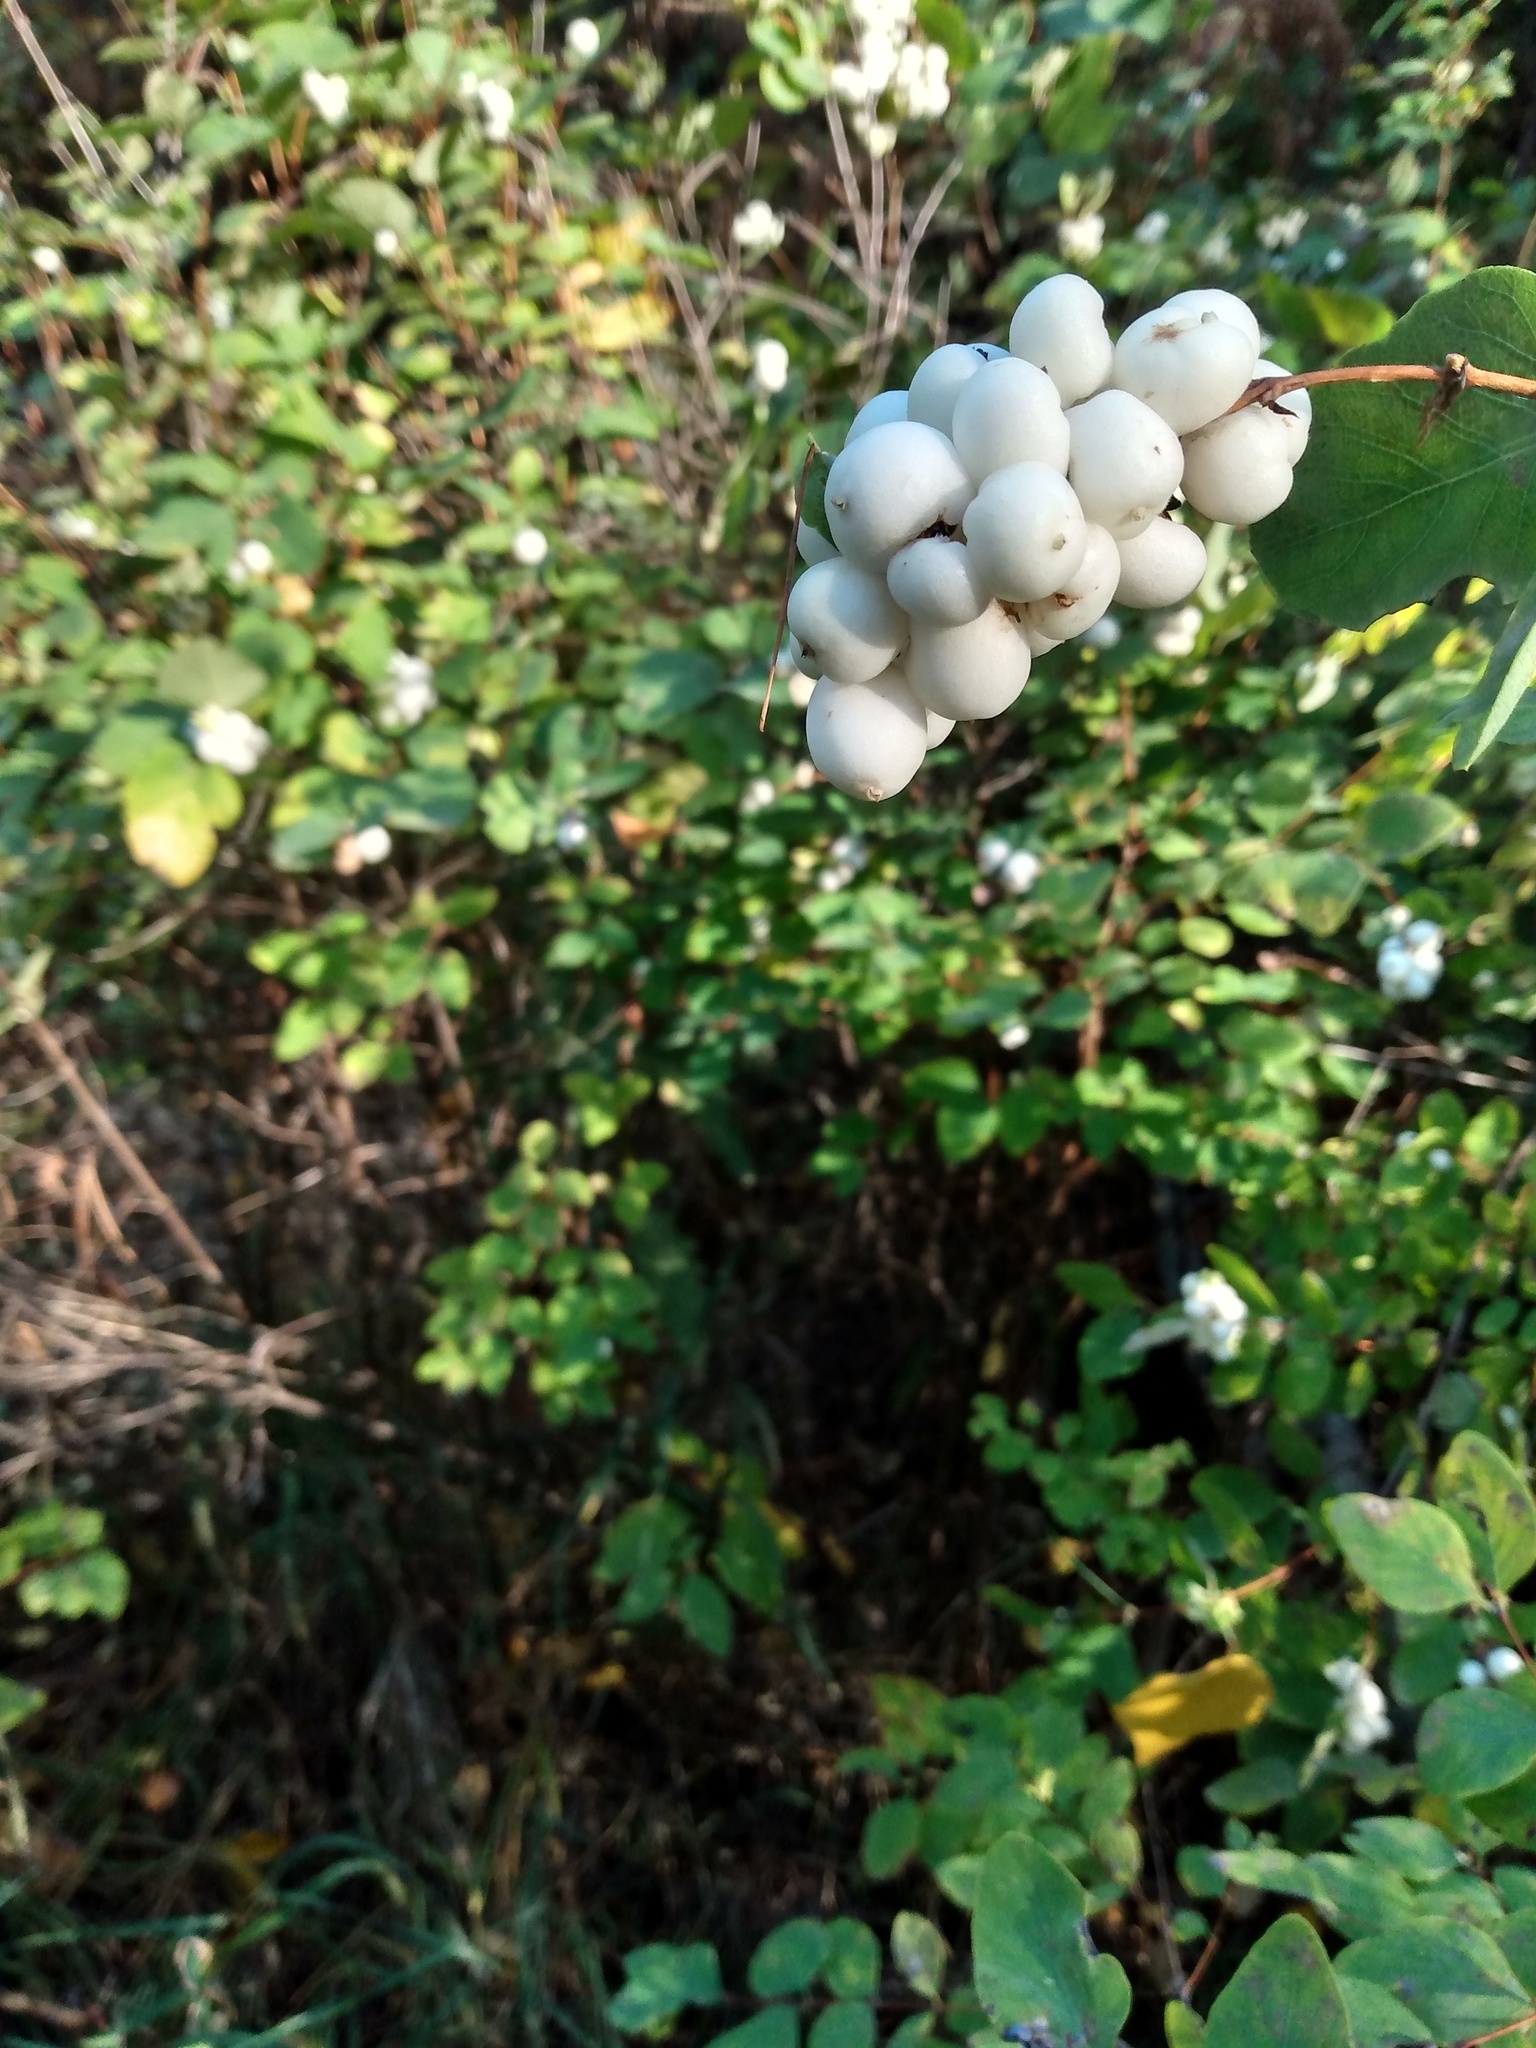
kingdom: Plantae
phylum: Tracheophyta
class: Magnoliopsida
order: Dipsacales
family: Caprifoliaceae
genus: Symphoricarpos
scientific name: Symphoricarpos albus
